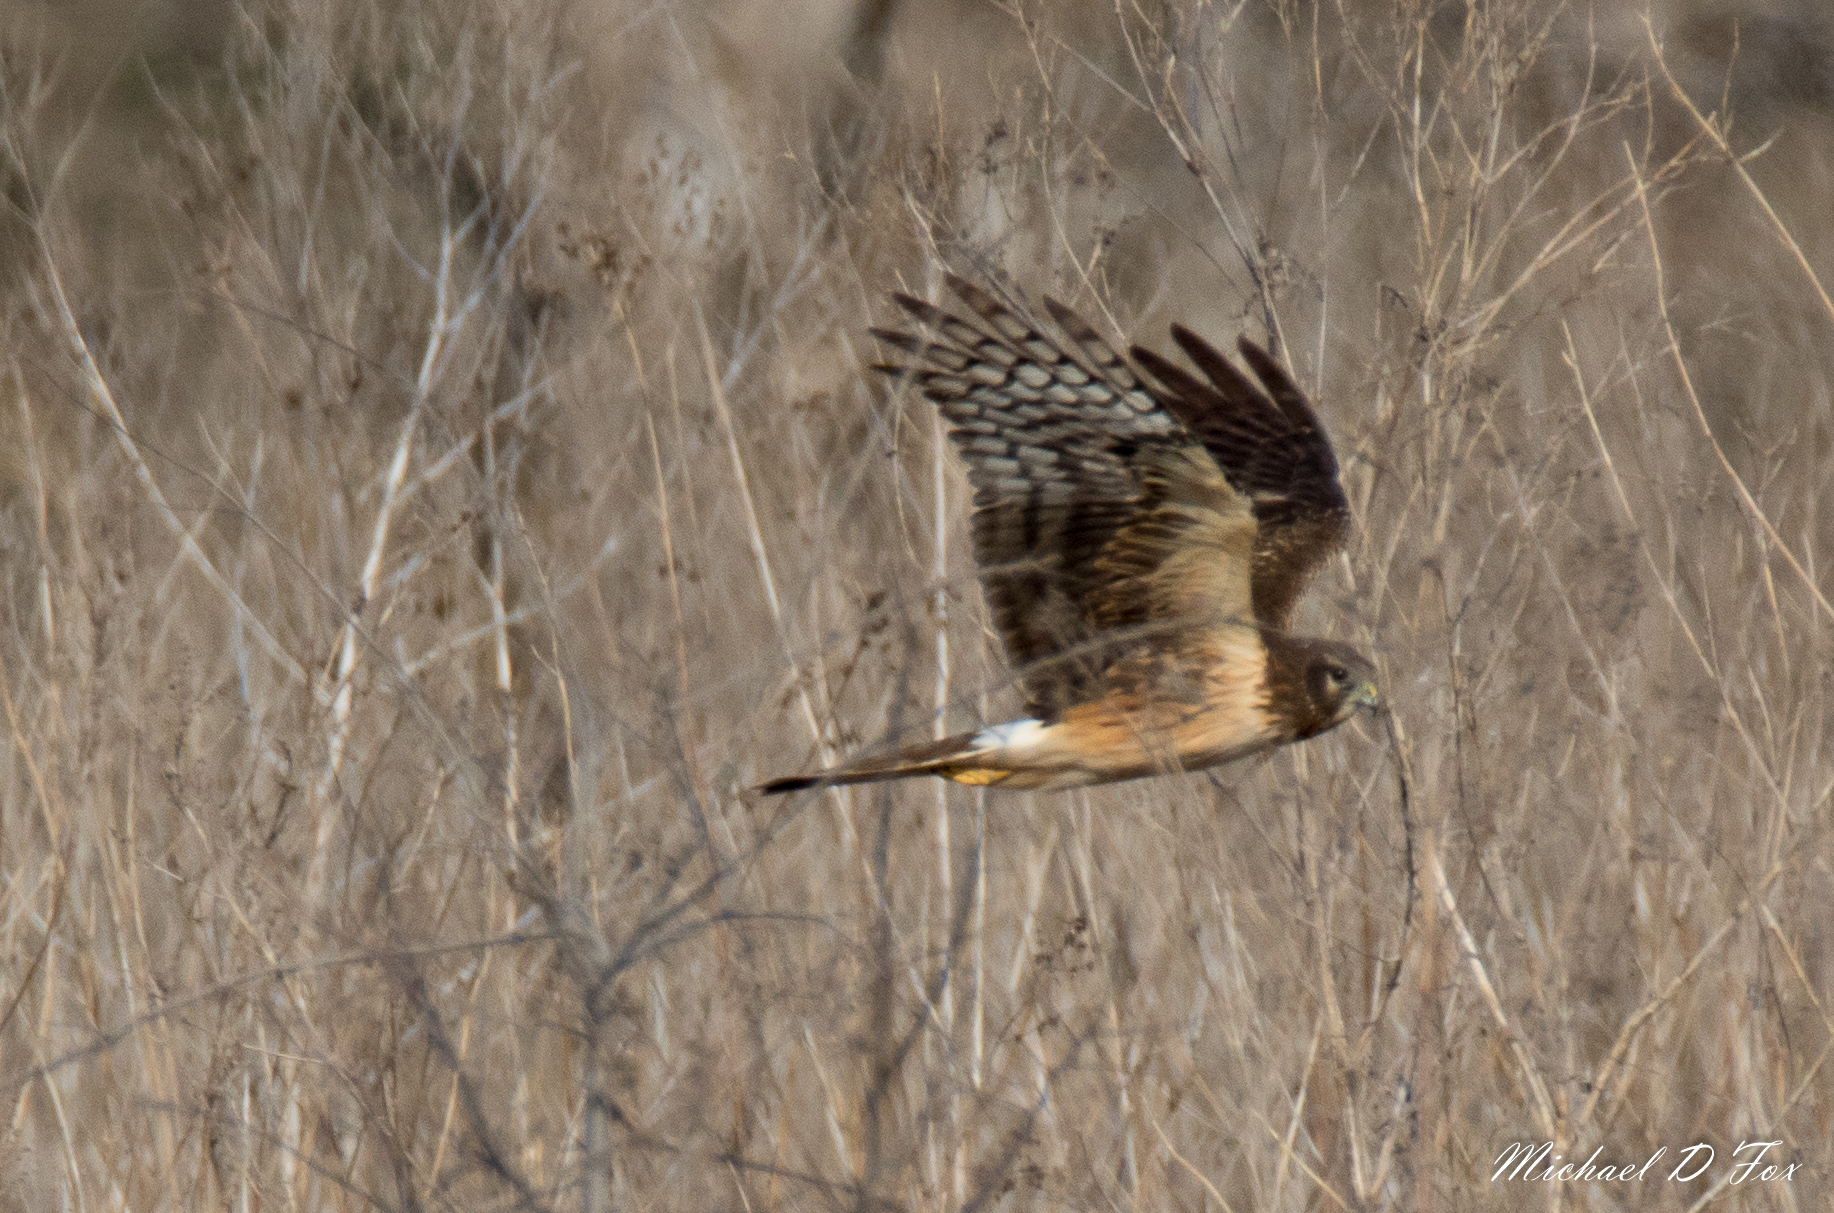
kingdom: Animalia
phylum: Chordata
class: Aves
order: Accipitriformes
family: Accipitridae
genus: Circus
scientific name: Circus cyaneus
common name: Hen harrier
